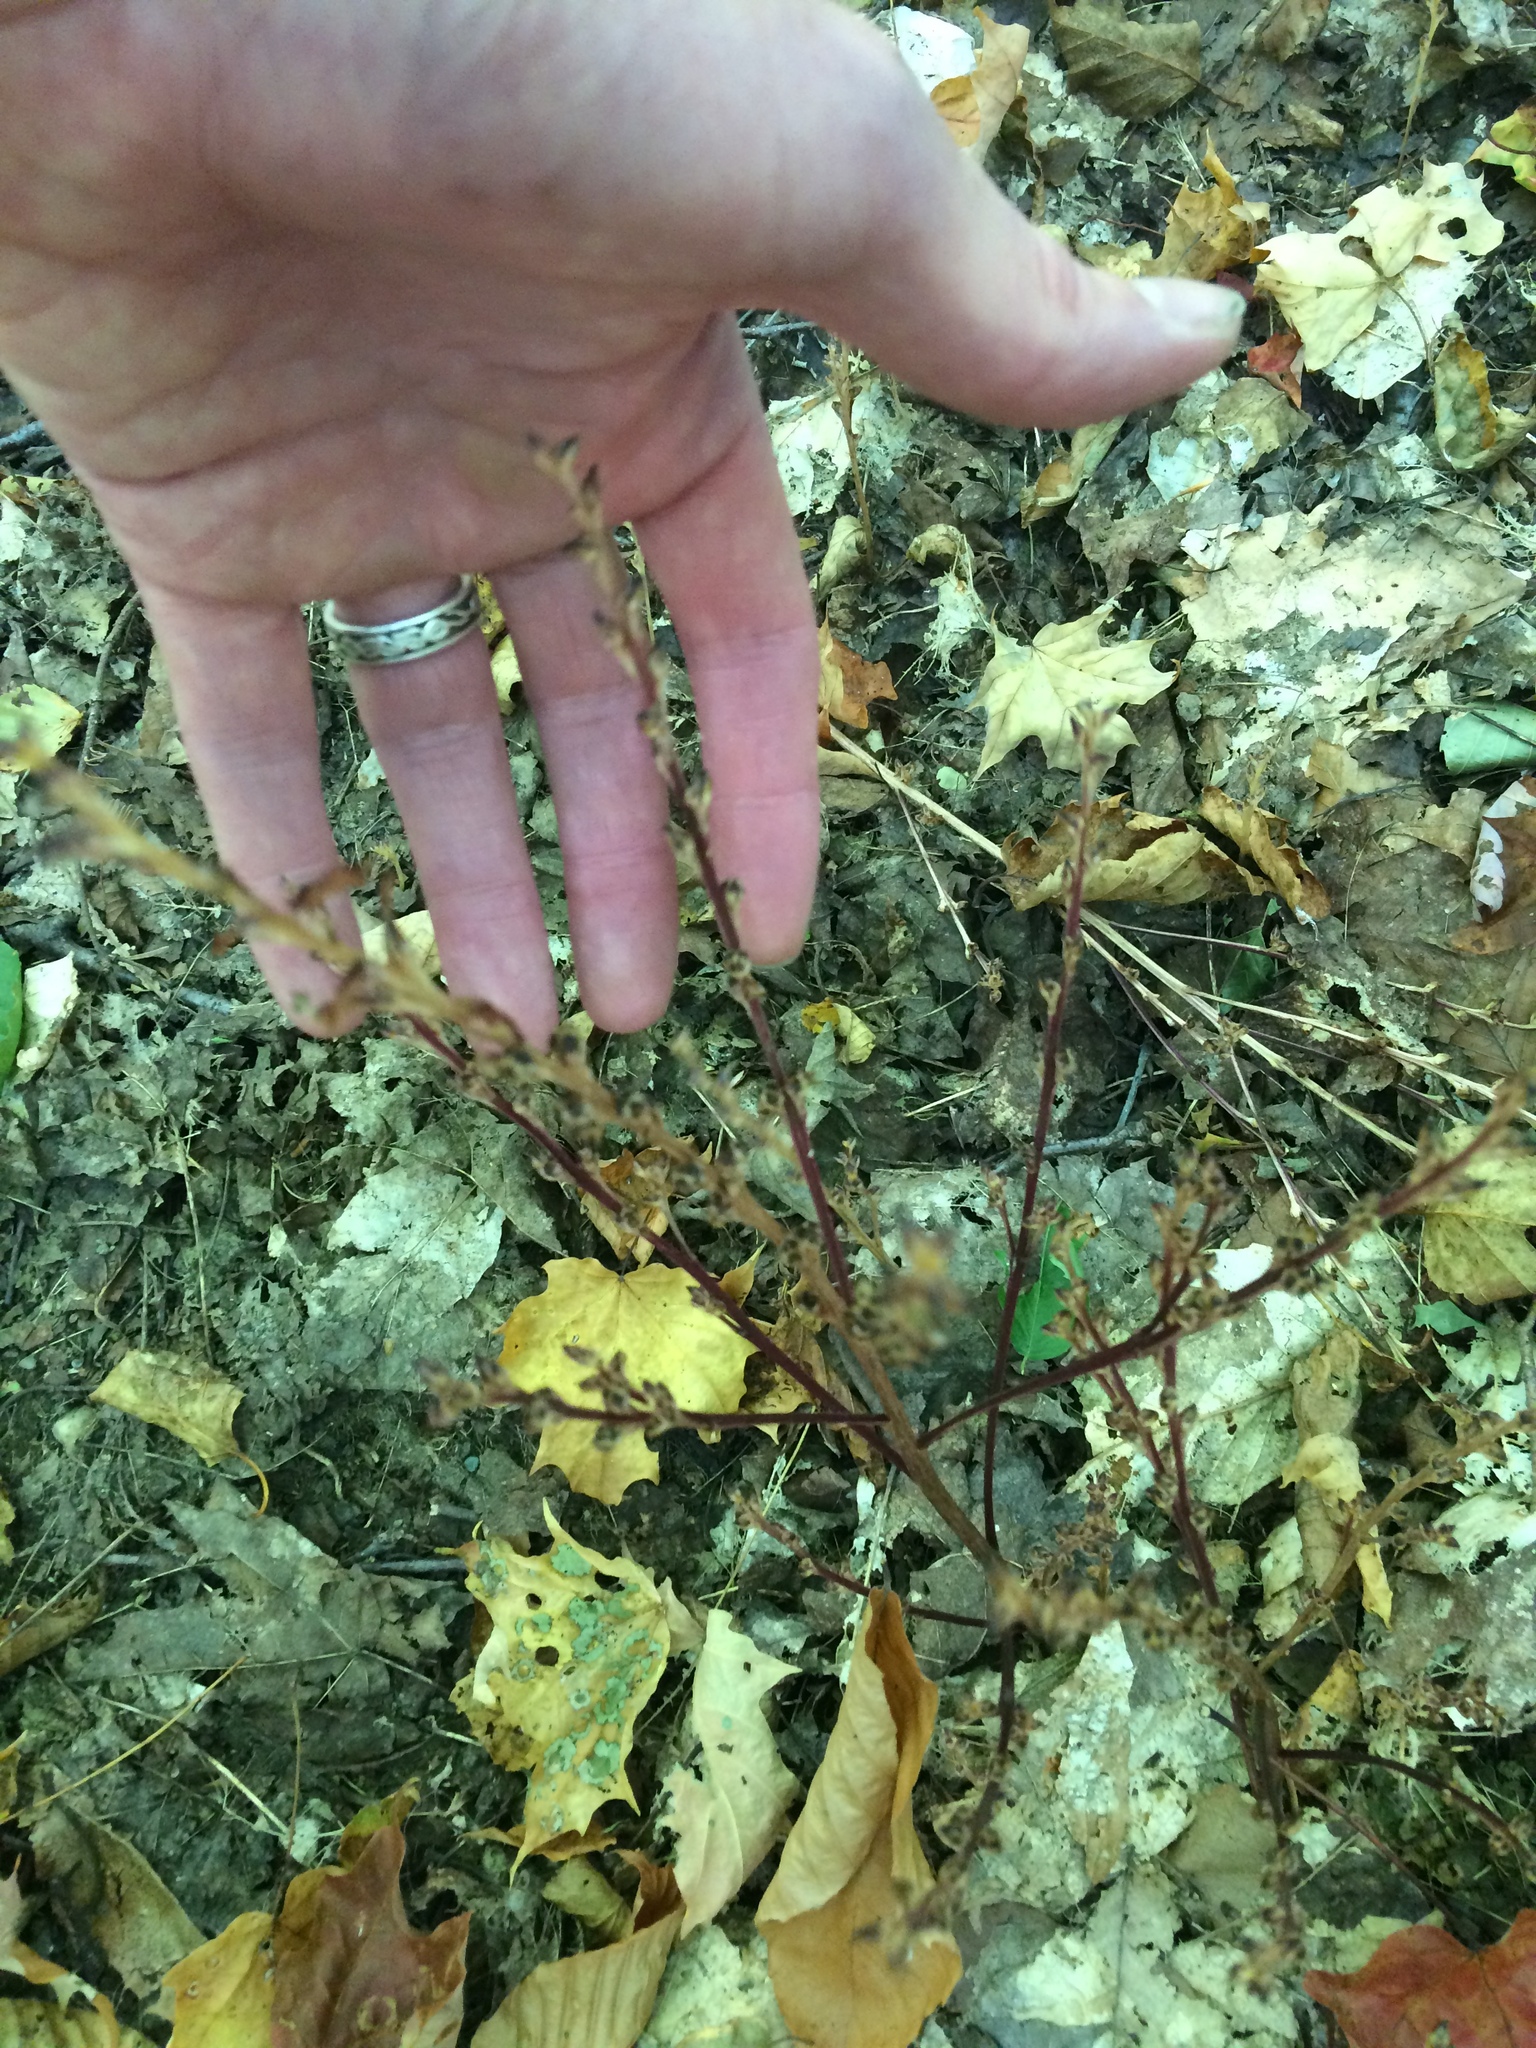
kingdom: Plantae
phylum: Tracheophyta
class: Magnoliopsida
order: Lamiales
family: Orobanchaceae
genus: Epifagus
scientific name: Epifagus virginiana
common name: Beechdrops
